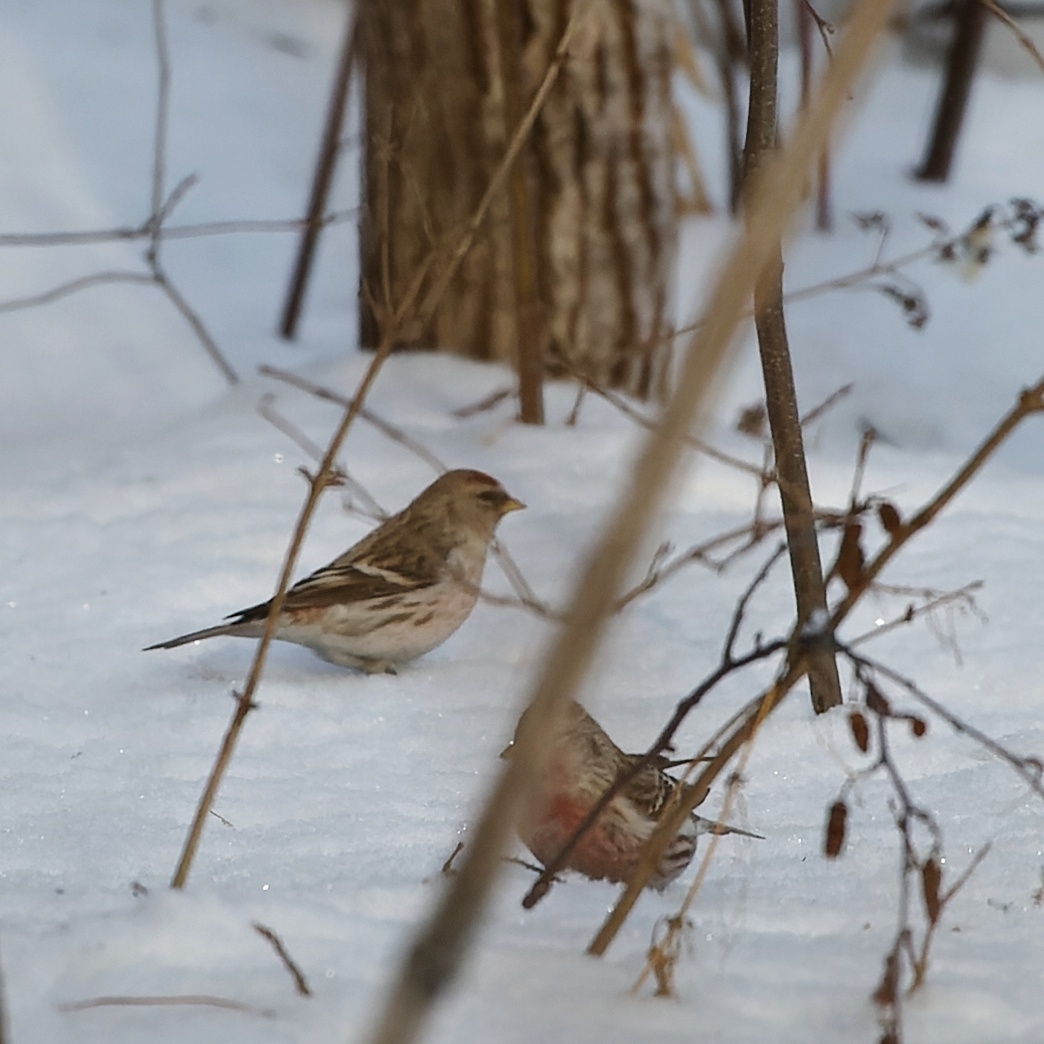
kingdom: Animalia
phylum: Chordata
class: Aves
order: Passeriformes
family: Fringillidae
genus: Acanthis
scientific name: Acanthis flammea
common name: Common redpoll
